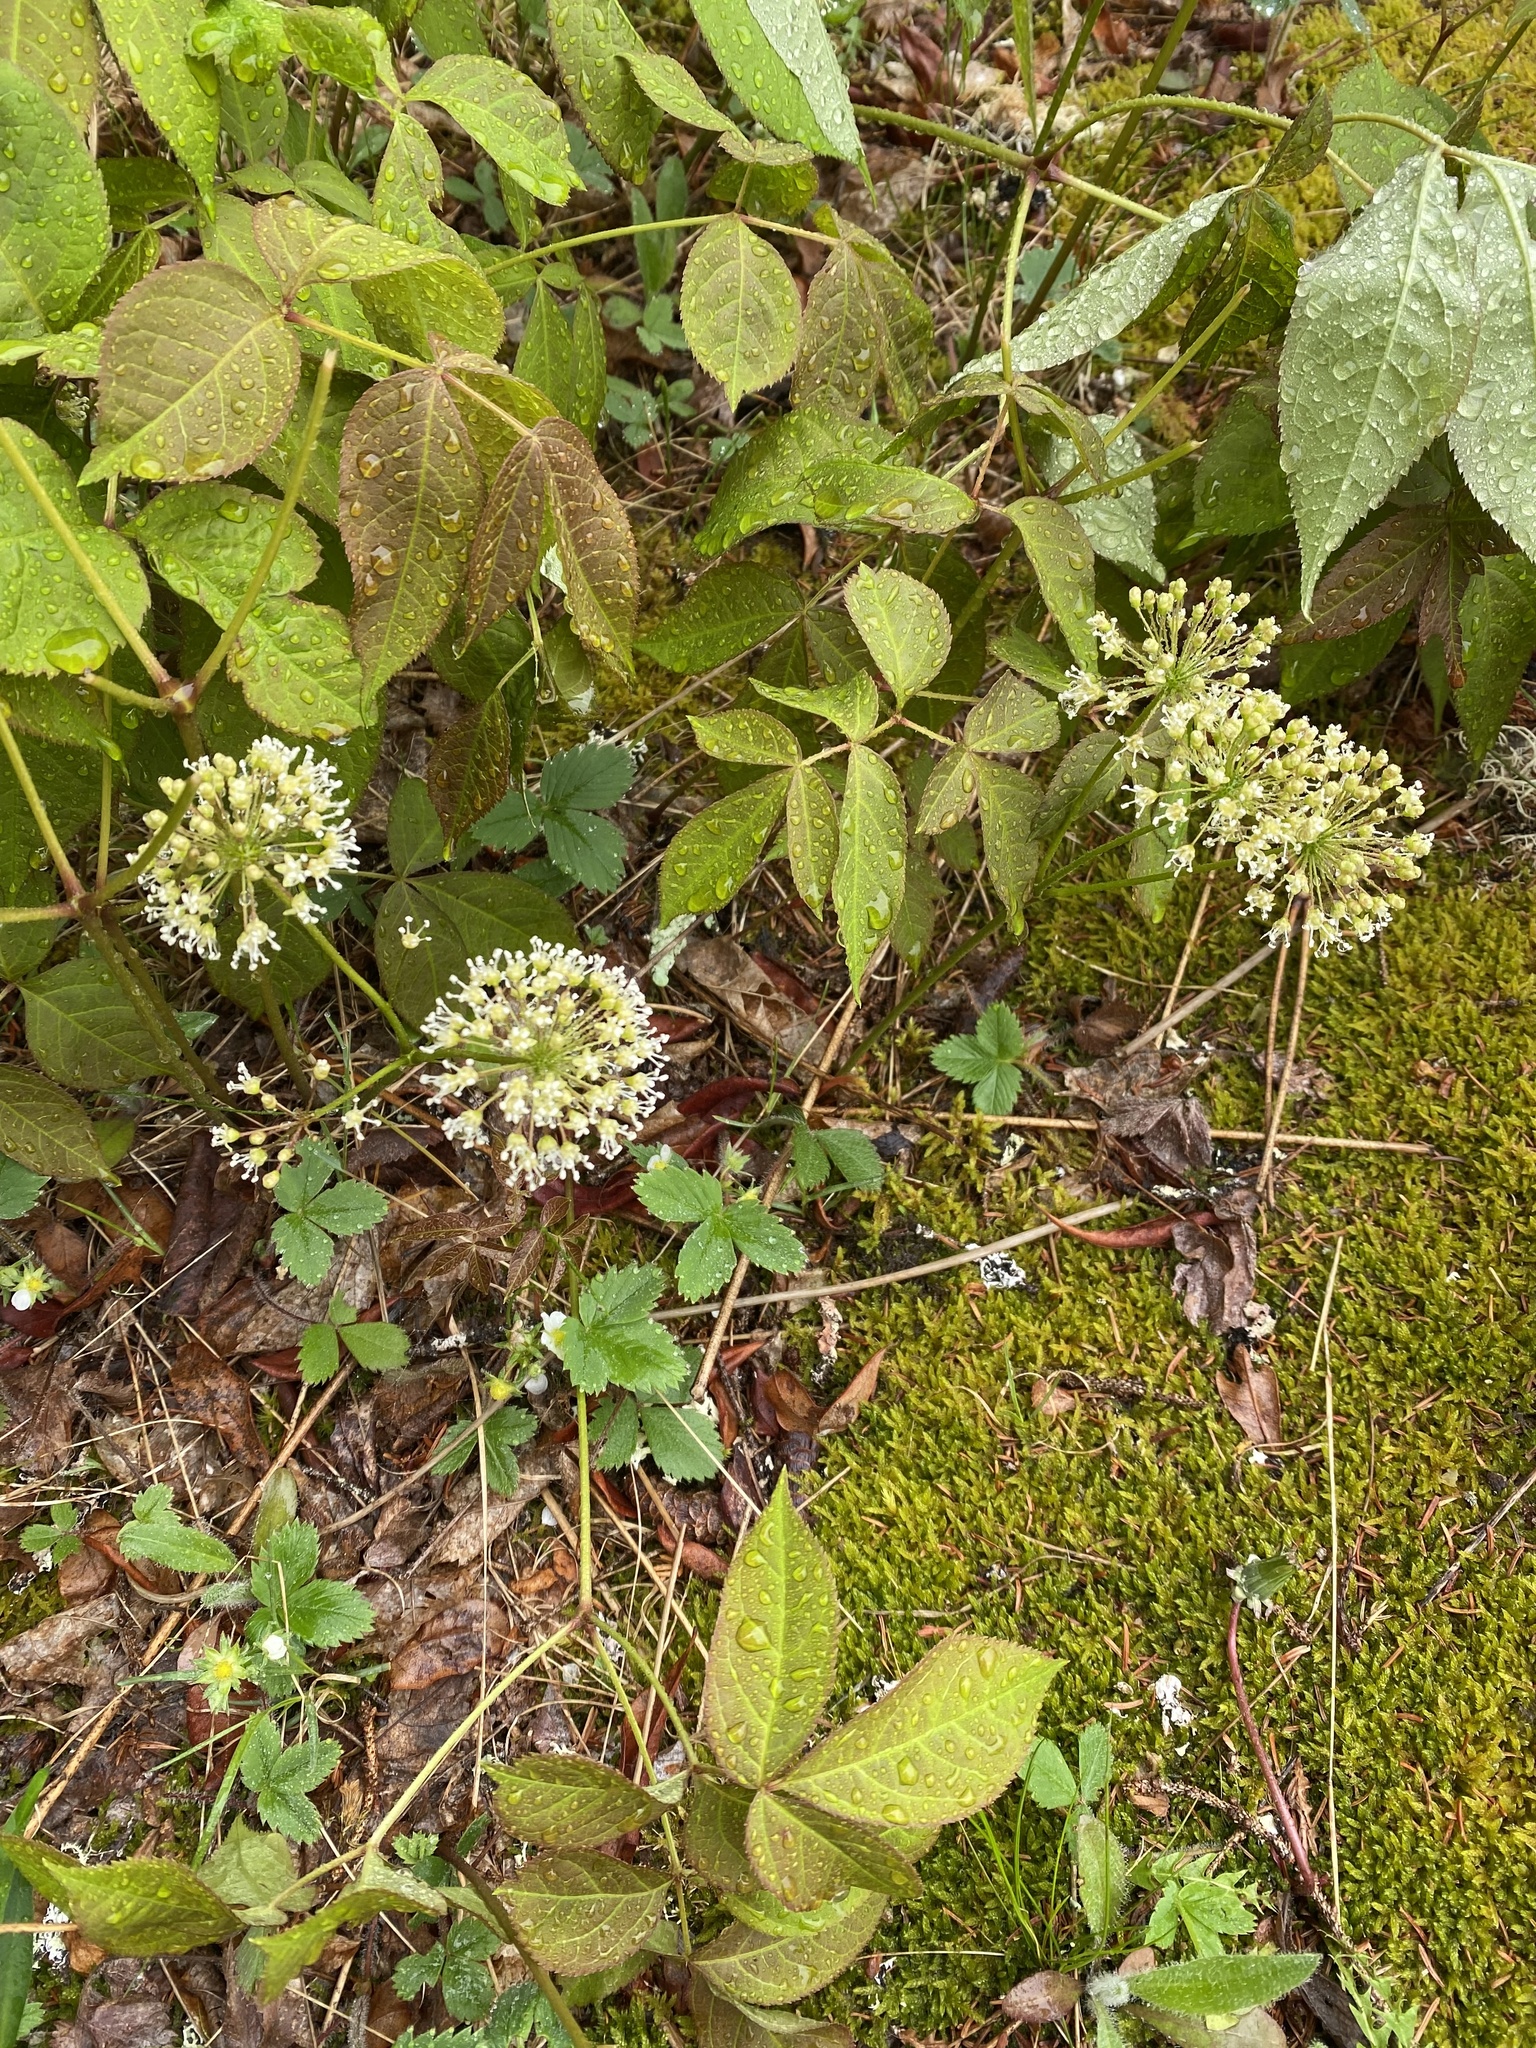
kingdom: Plantae
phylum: Tracheophyta
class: Magnoliopsida
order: Apiales
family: Araliaceae
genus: Aralia
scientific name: Aralia nudicaulis
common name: Wild sarsaparilla
